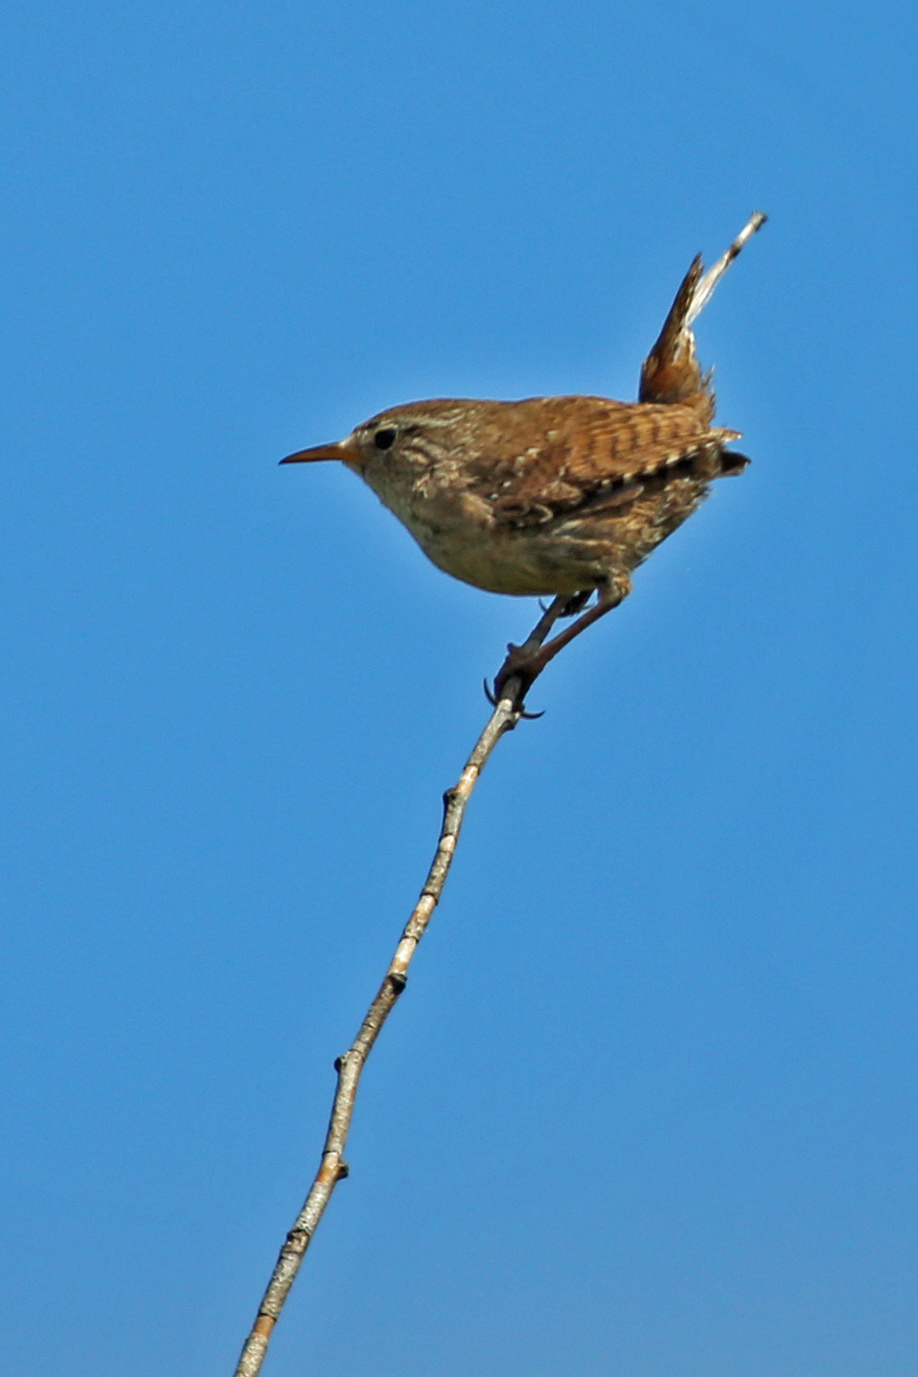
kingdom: Animalia
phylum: Chordata
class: Aves
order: Passeriformes
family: Troglodytidae
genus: Troglodytes
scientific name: Troglodytes troglodytes
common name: Eurasian wren
